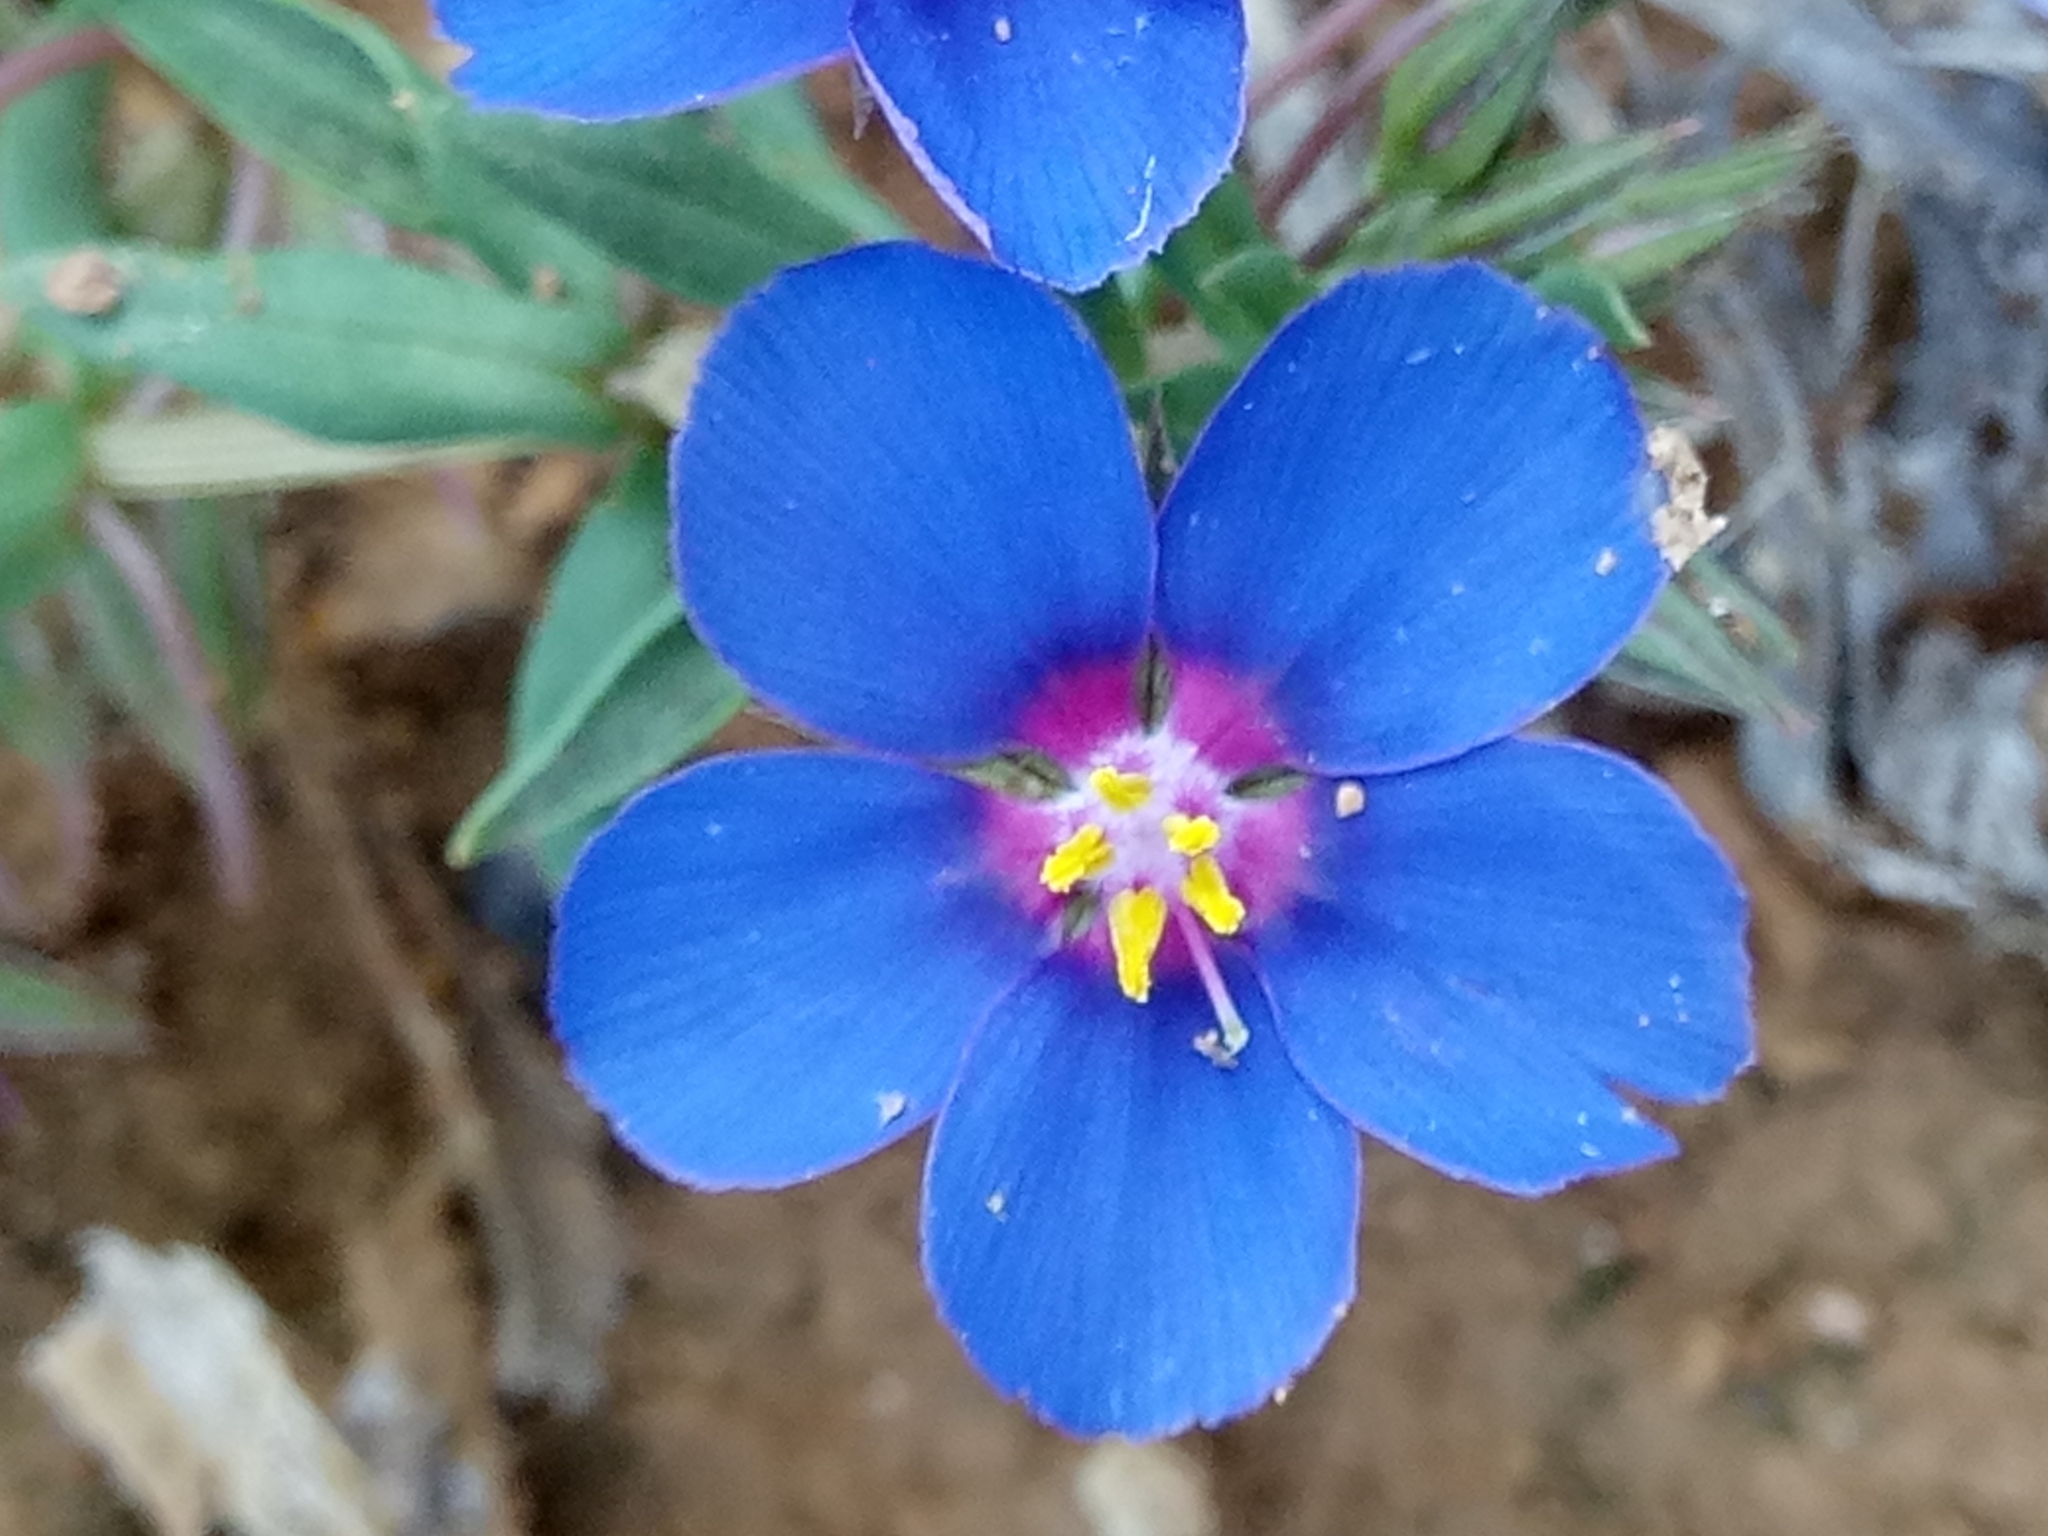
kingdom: Plantae
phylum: Tracheophyta
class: Magnoliopsida
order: Ericales
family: Primulaceae
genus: Lysimachia
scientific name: Lysimachia monelli
